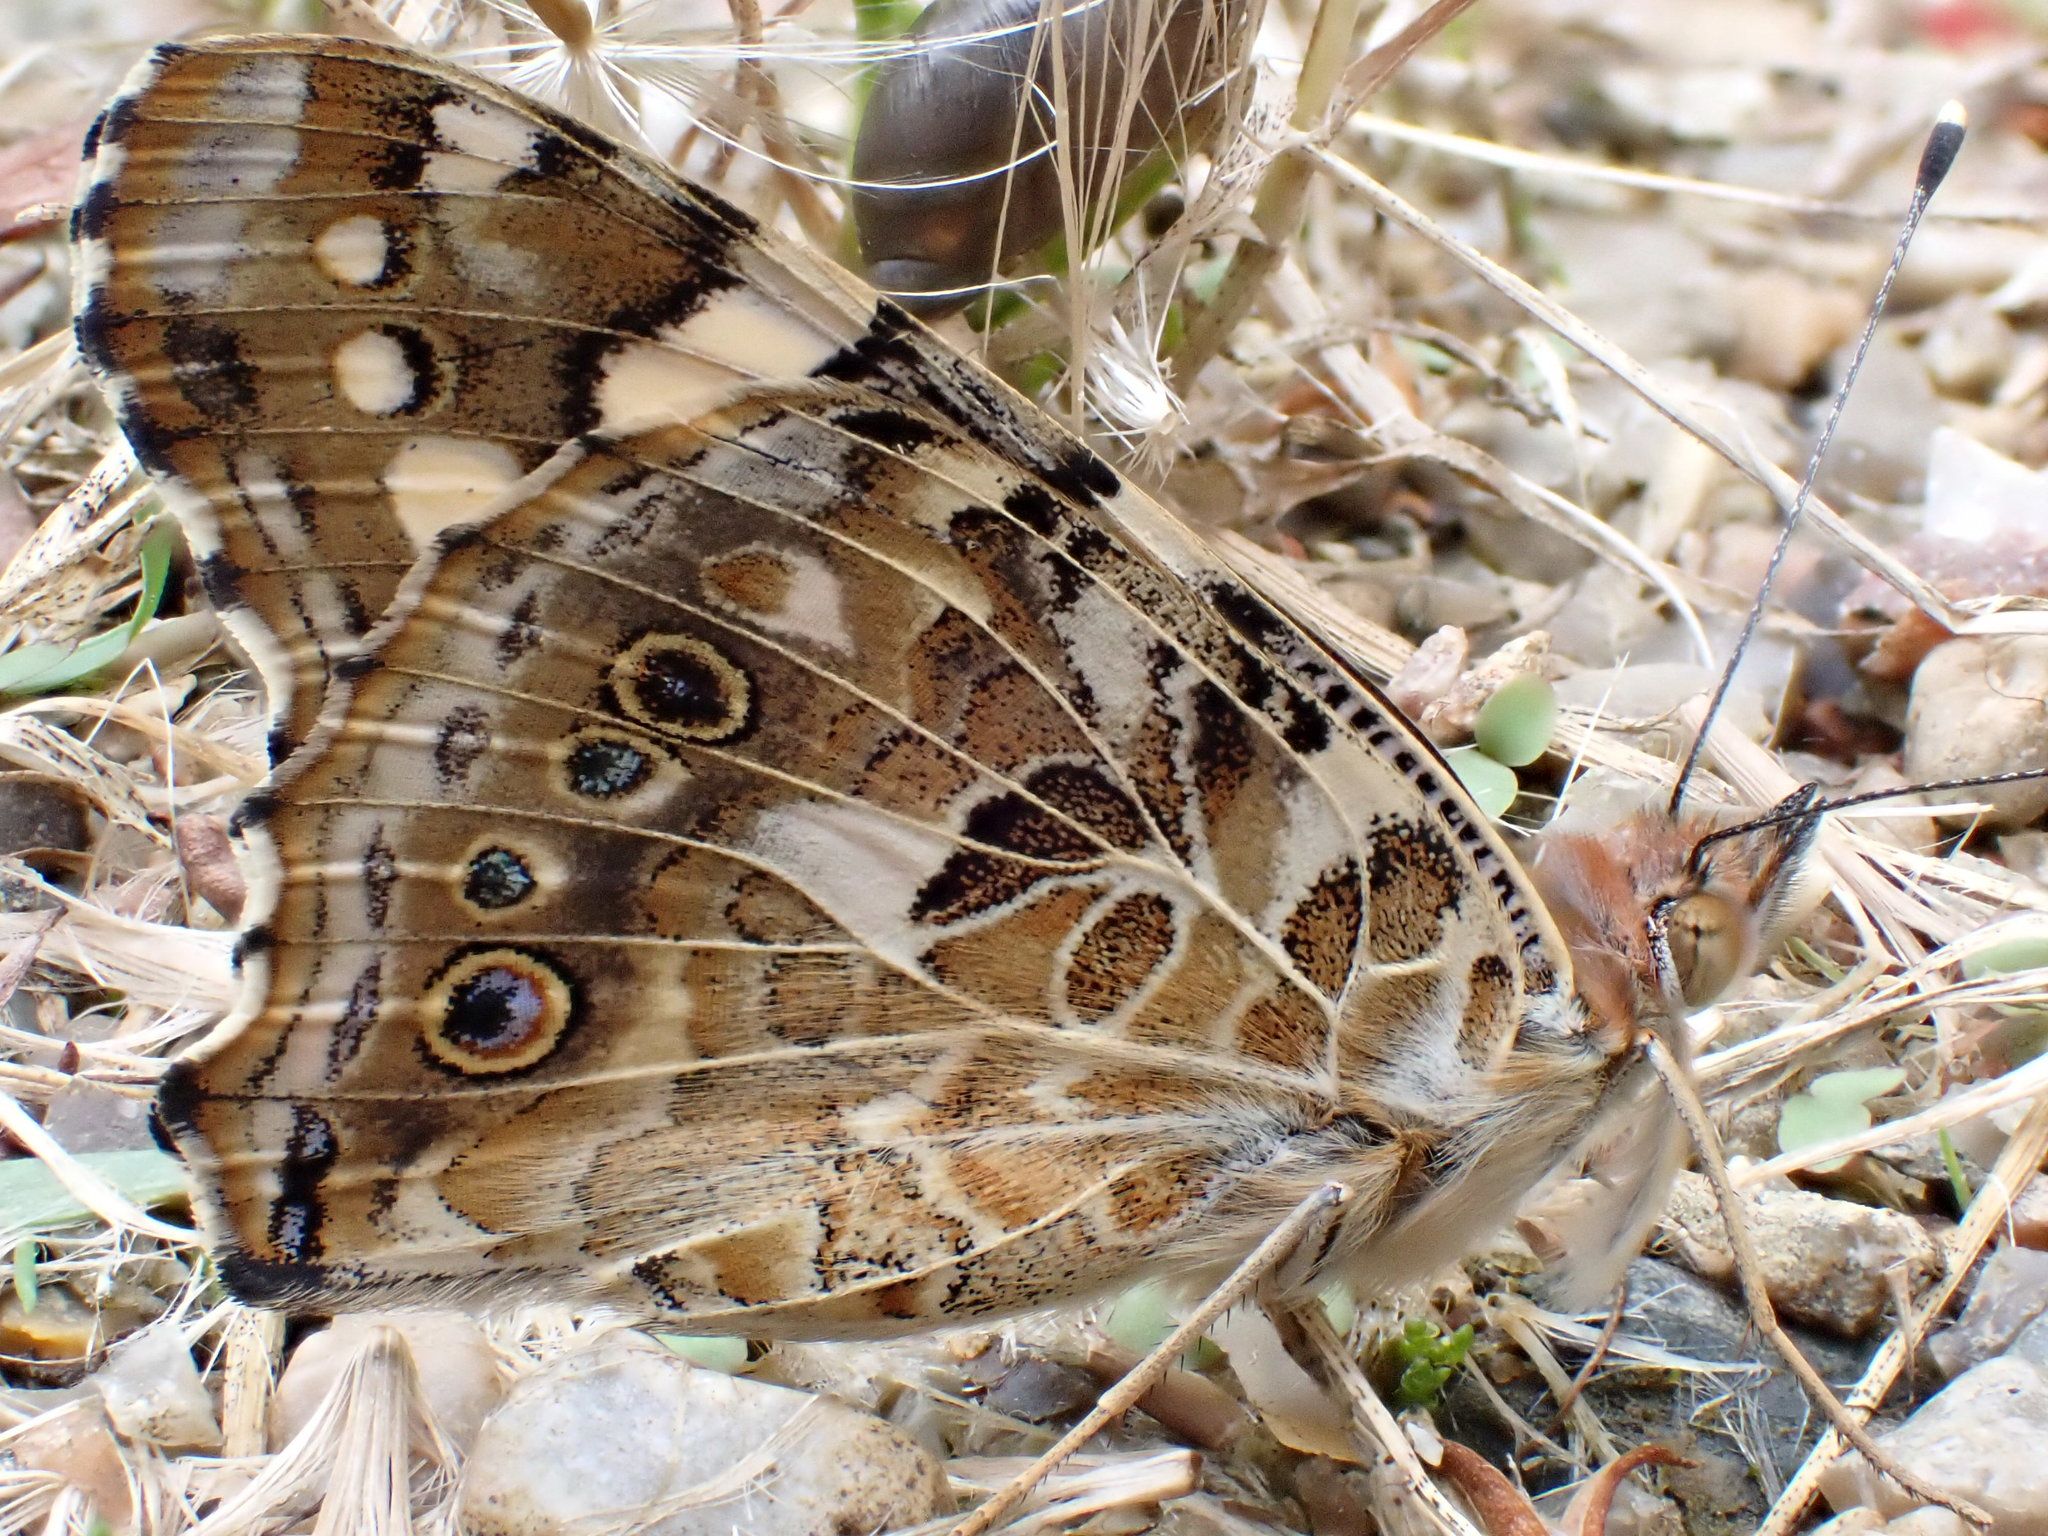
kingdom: Animalia
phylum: Arthropoda
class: Insecta
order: Lepidoptera
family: Nymphalidae
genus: Vanessa
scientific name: Vanessa cardui
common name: Painted lady
